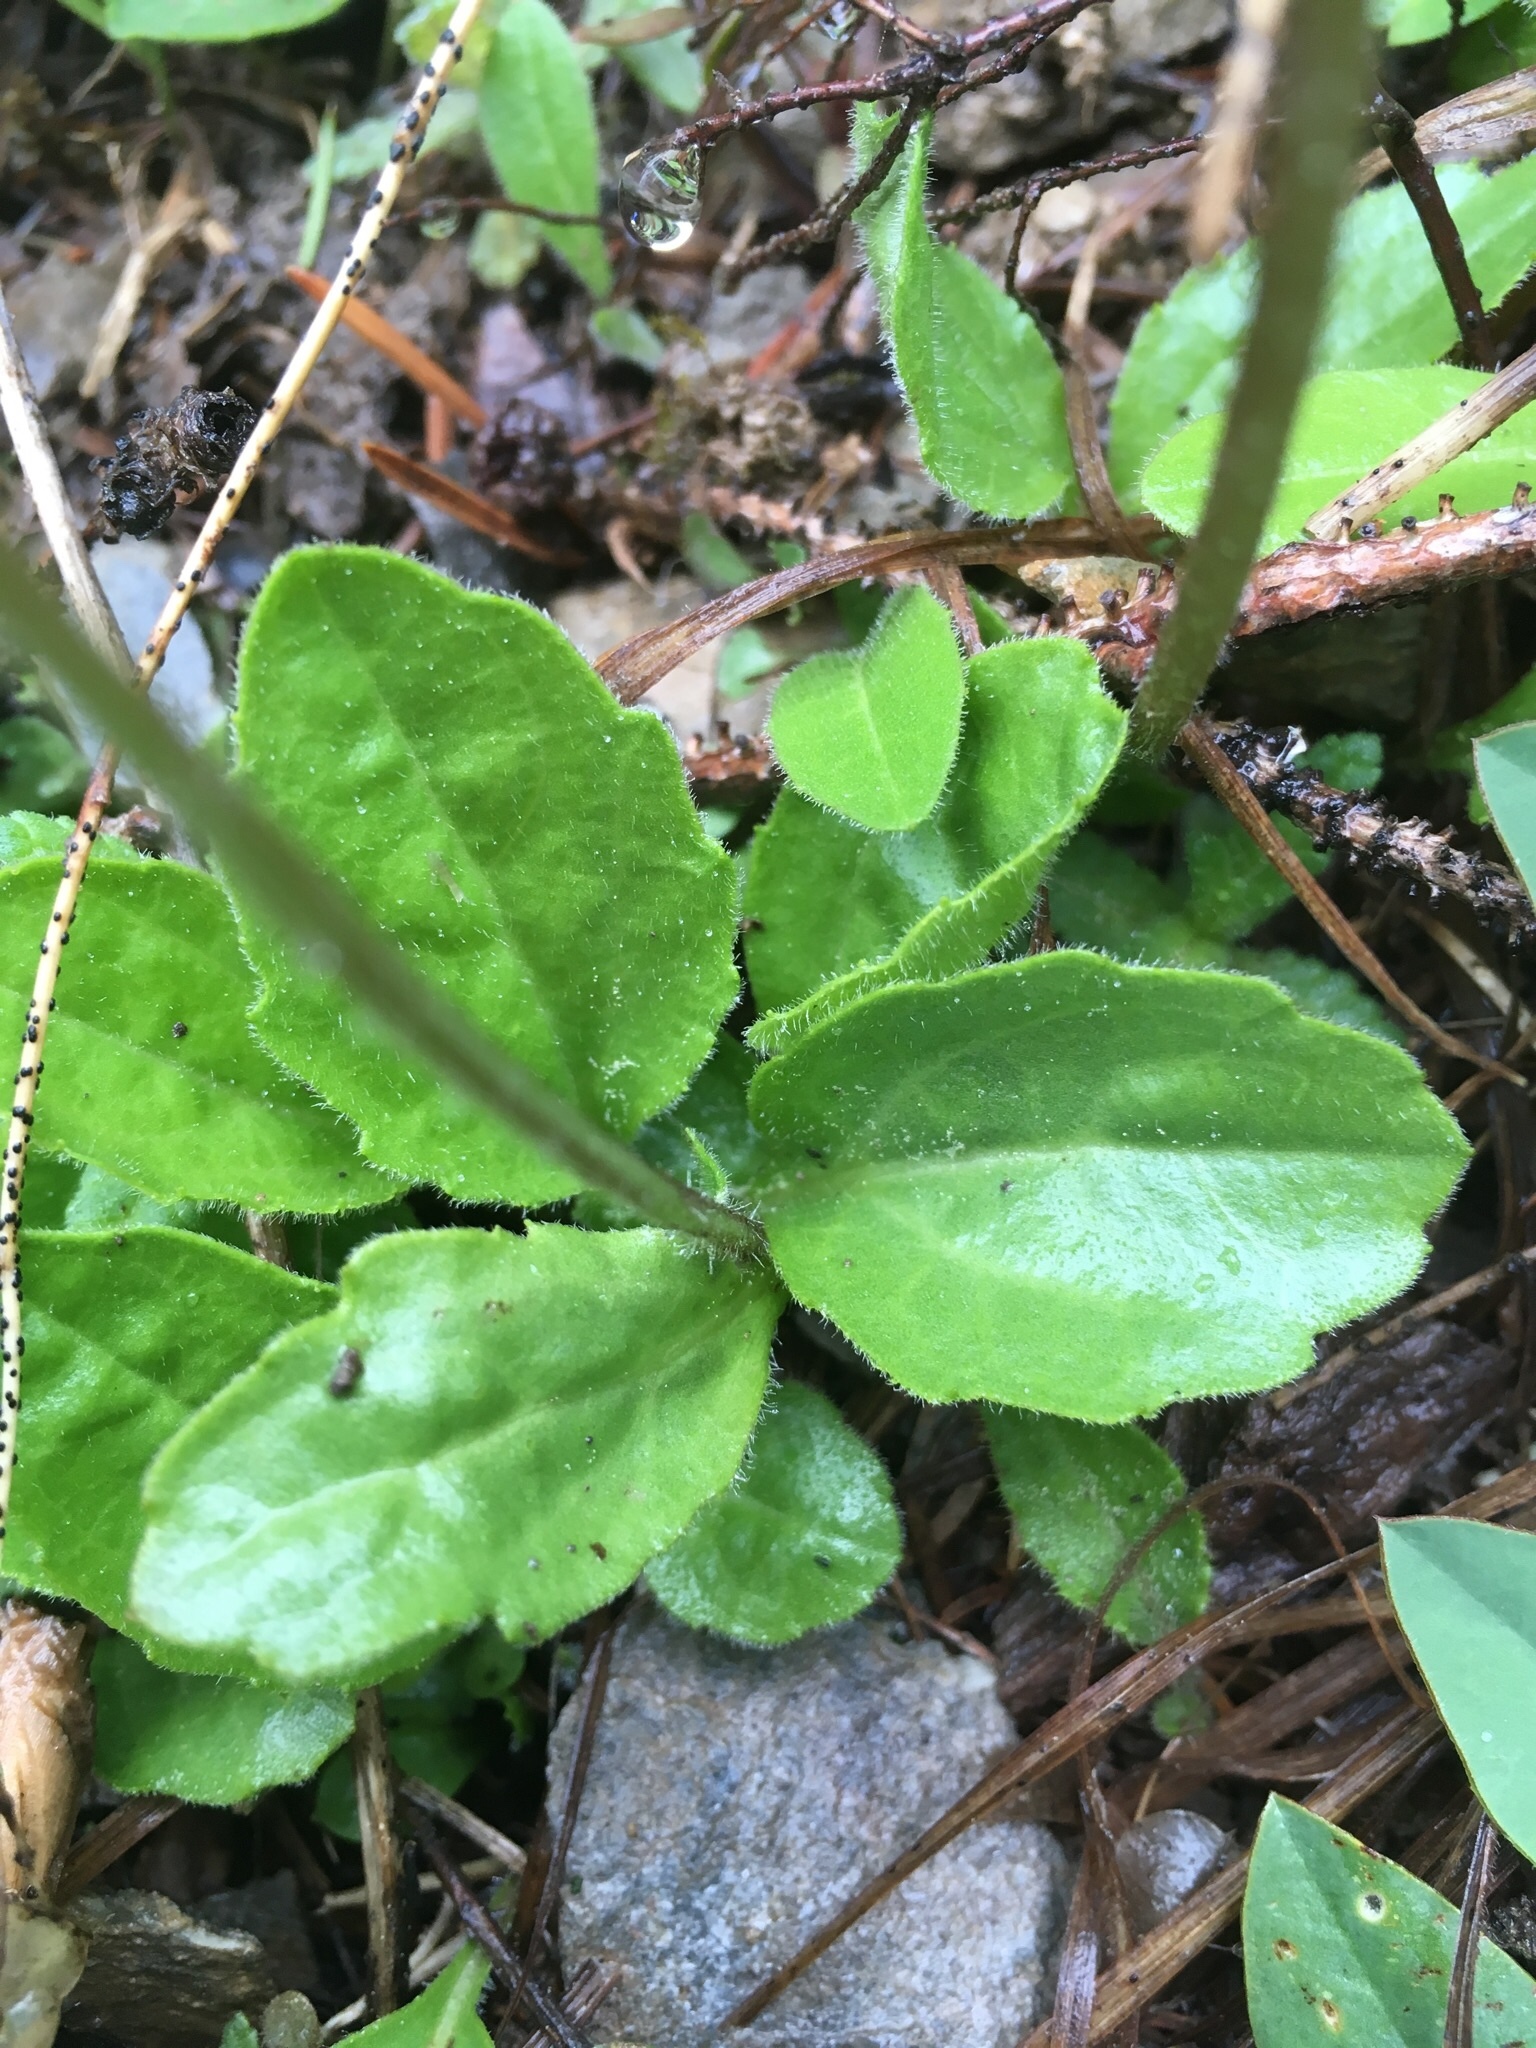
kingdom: Plantae
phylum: Tracheophyta
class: Magnoliopsida
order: Asterales
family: Asteraceae
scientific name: Asteraceae
